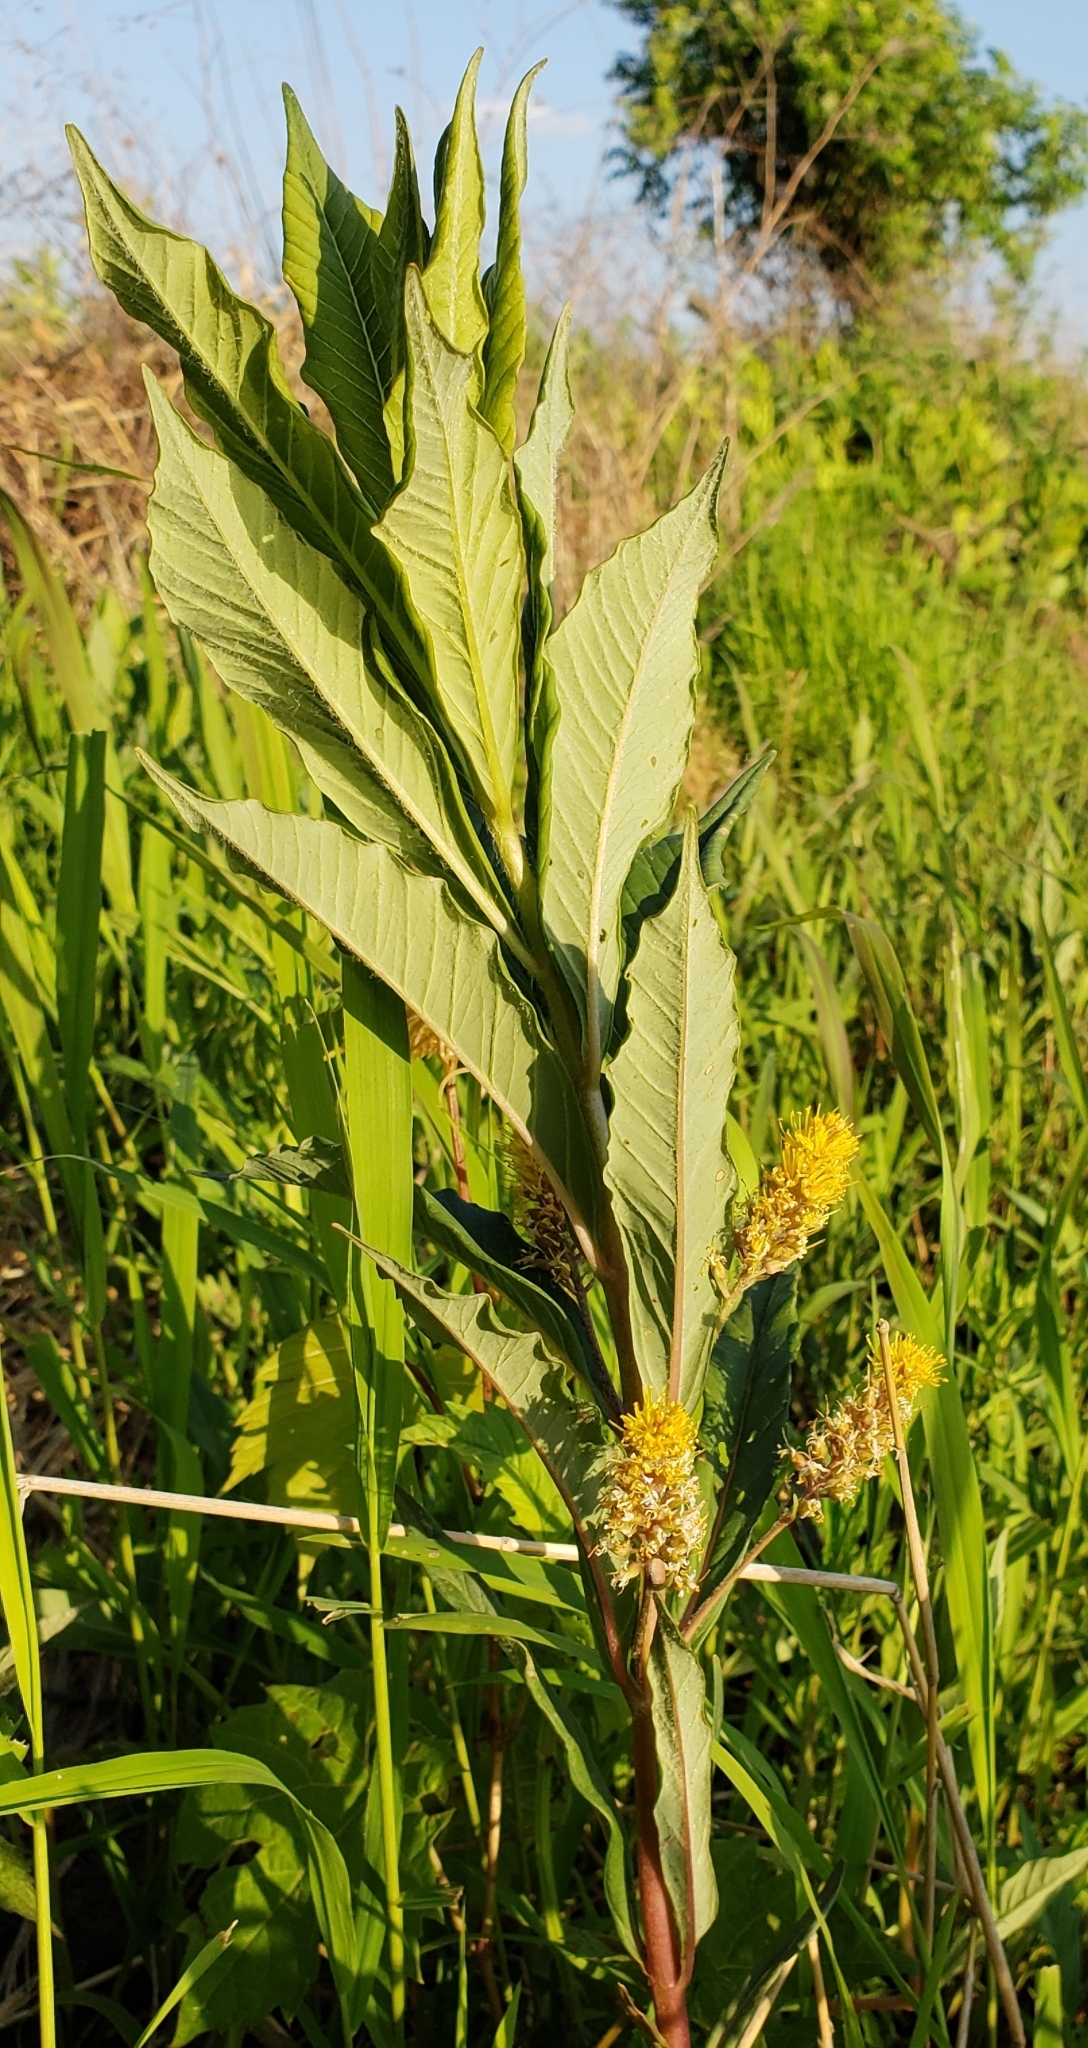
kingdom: Plantae
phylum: Tracheophyta
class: Magnoliopsida
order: Ericales
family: Primulaceae
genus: Lysimachia
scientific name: Lysimachia thyrsiflora
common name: Tufted loosestrife
